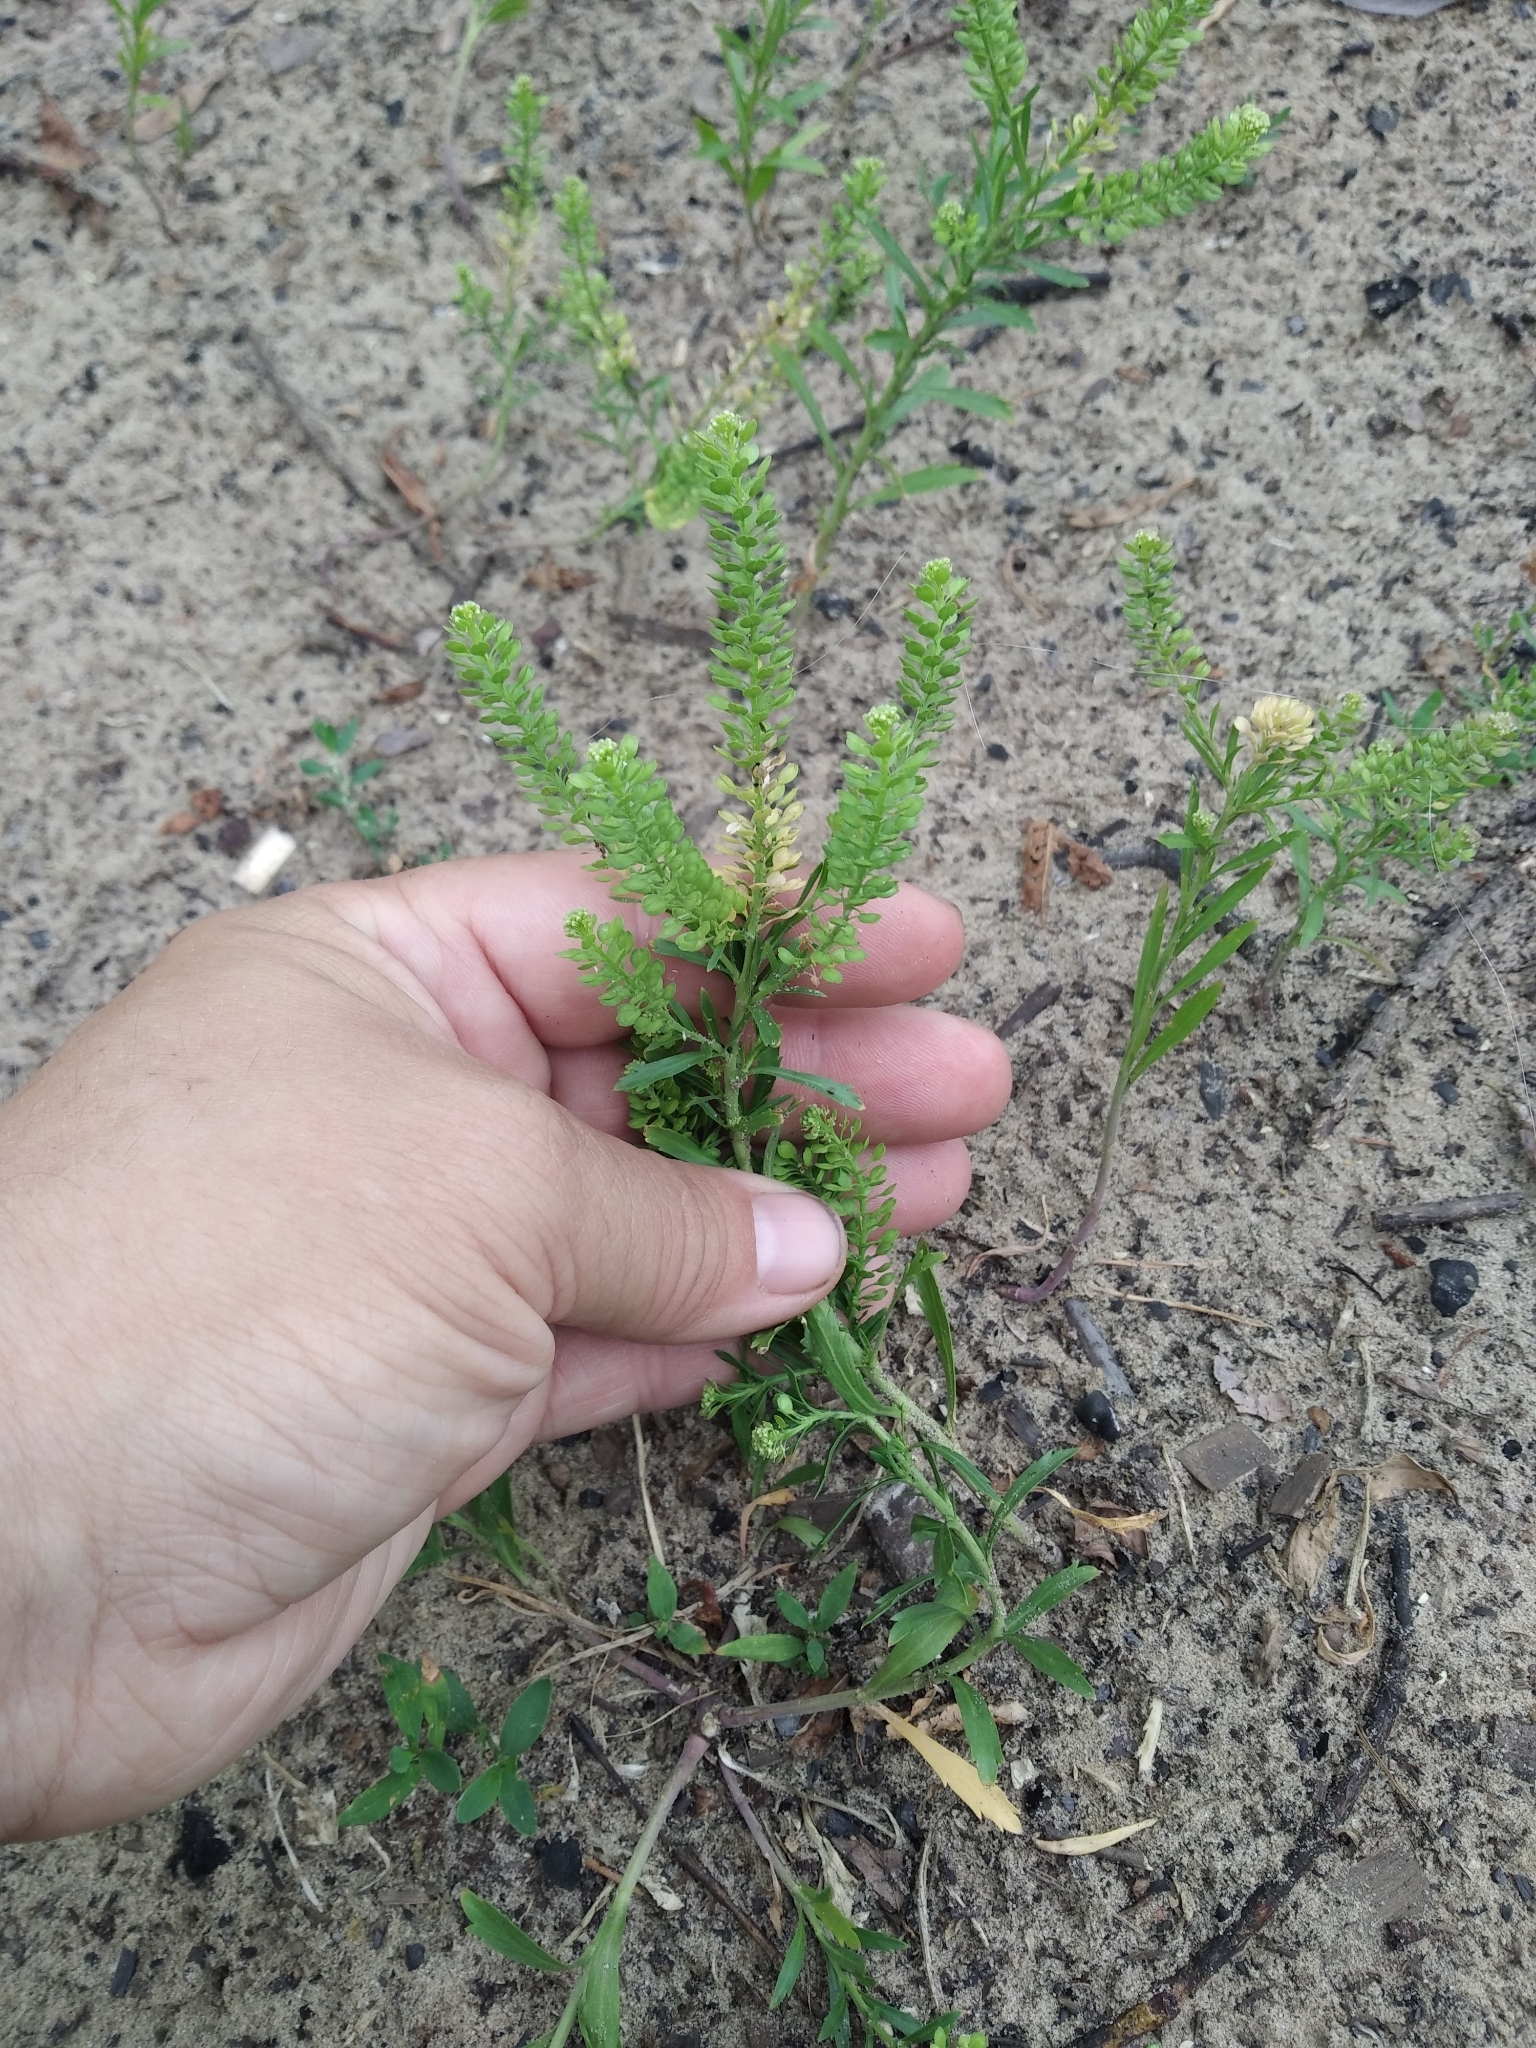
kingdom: Plantae
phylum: Tracheophyta
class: Magnoliopsida
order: Brassicales
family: Brassicaceae
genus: Lepidium
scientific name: Lepidium densiflorum
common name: Miner's pepperwort
